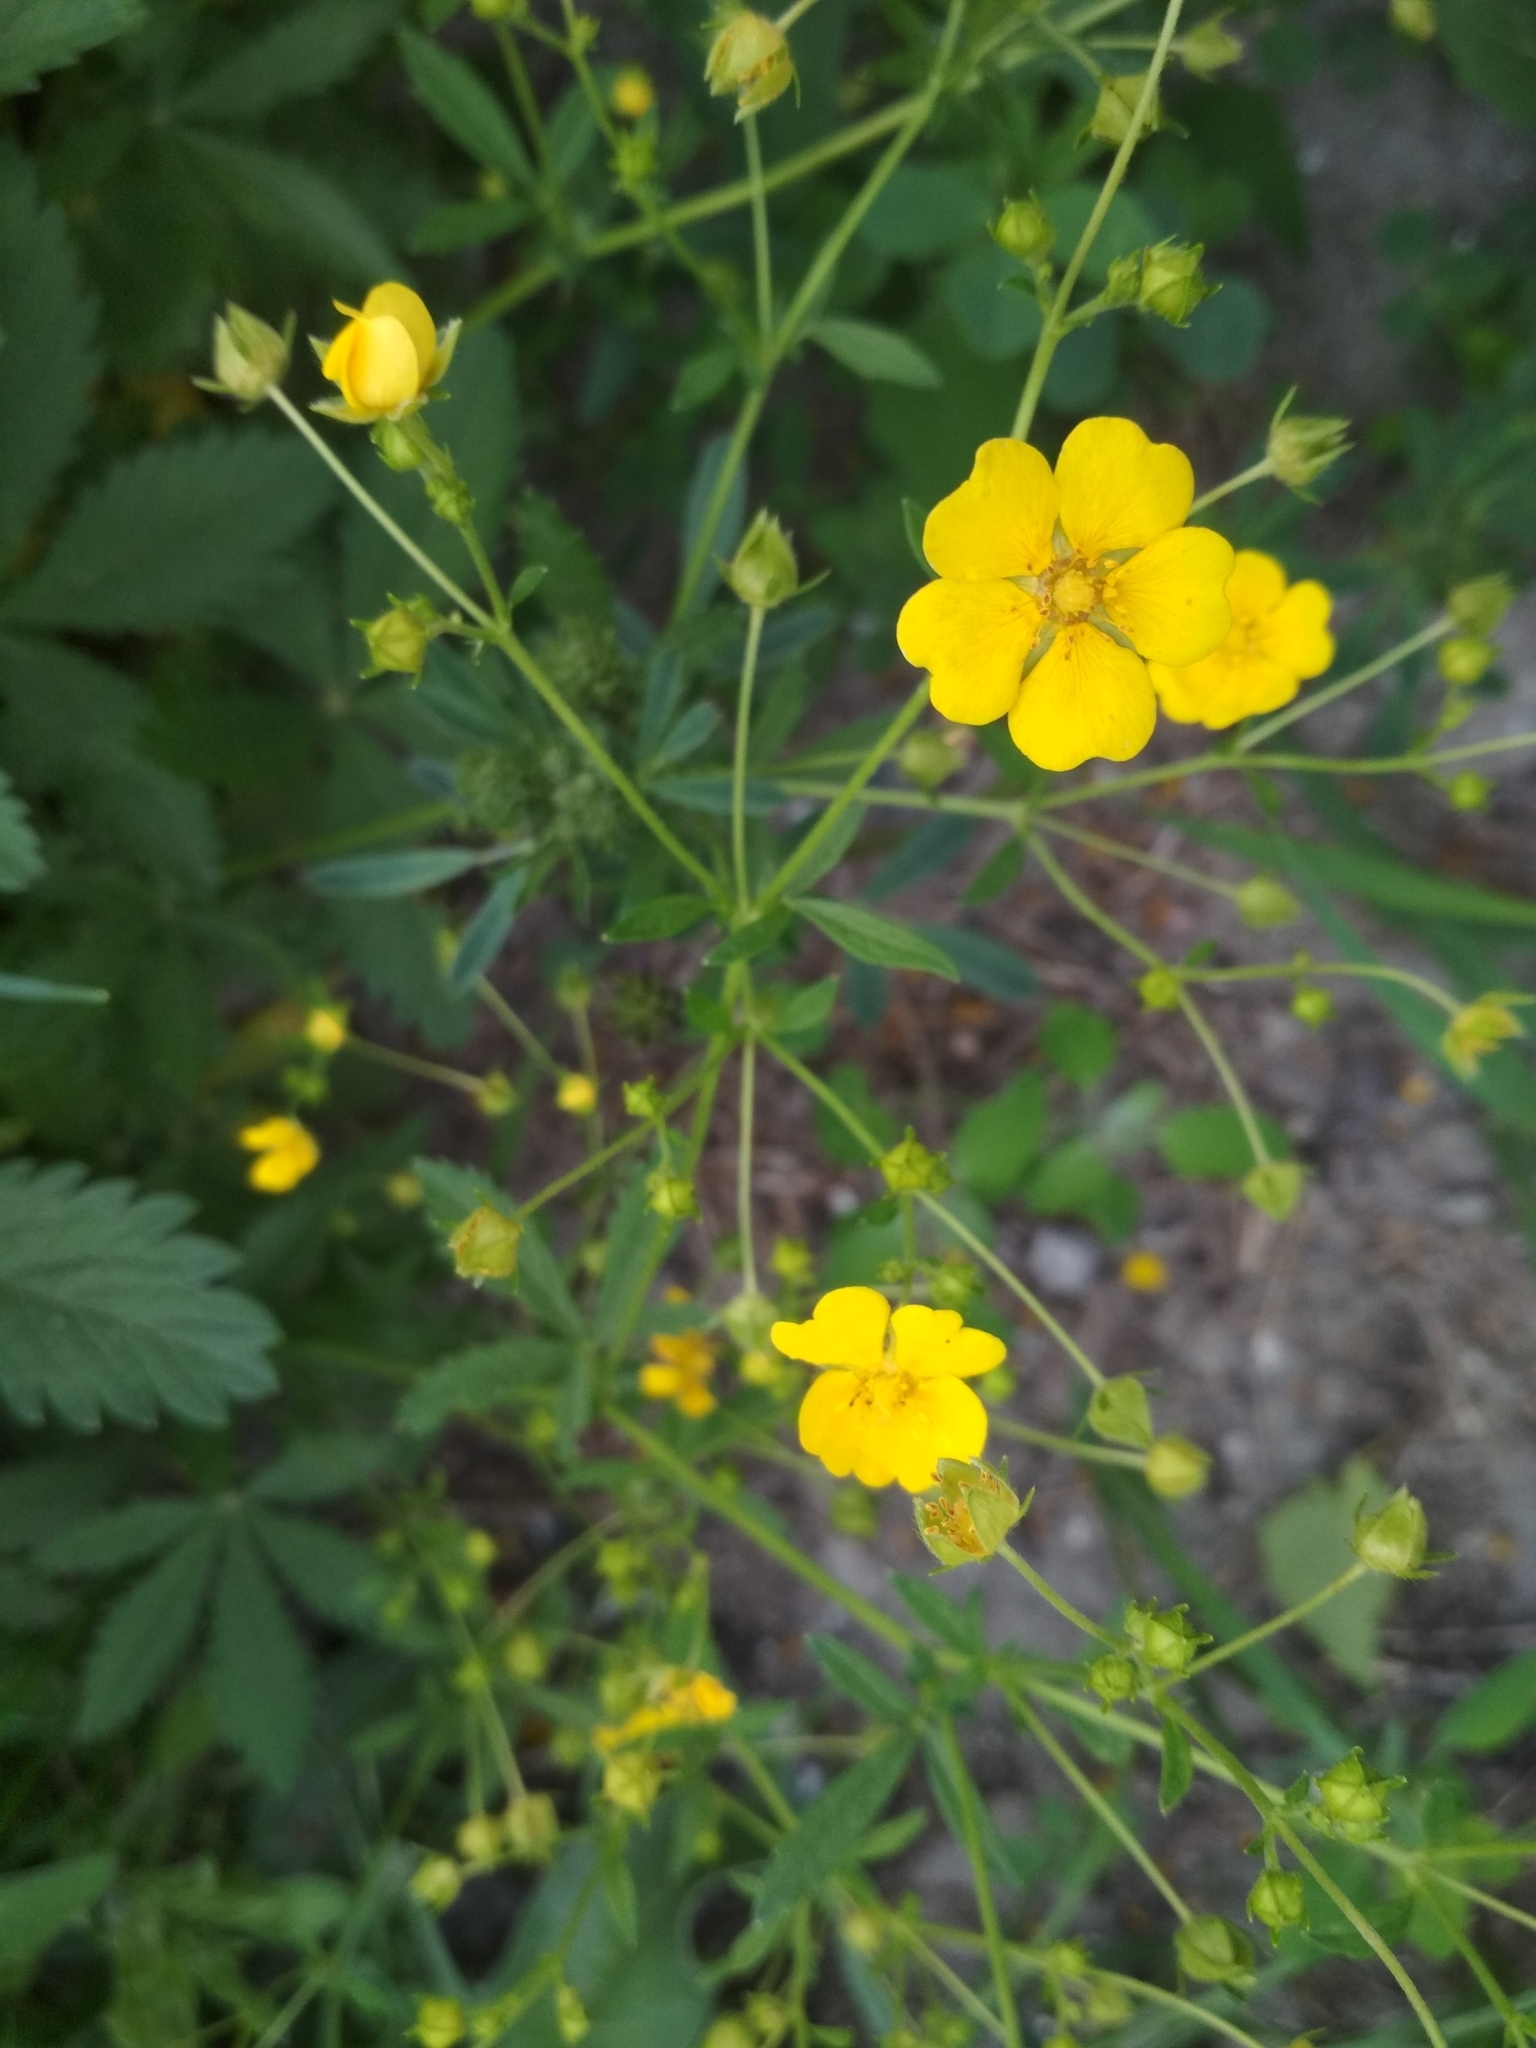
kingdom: Plantae
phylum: Tracheophyta
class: Magnoliopsida
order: Rosales
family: Rosaceae
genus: Potentilla
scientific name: Potentilla chrysantha
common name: Thuringian cinquefoil
